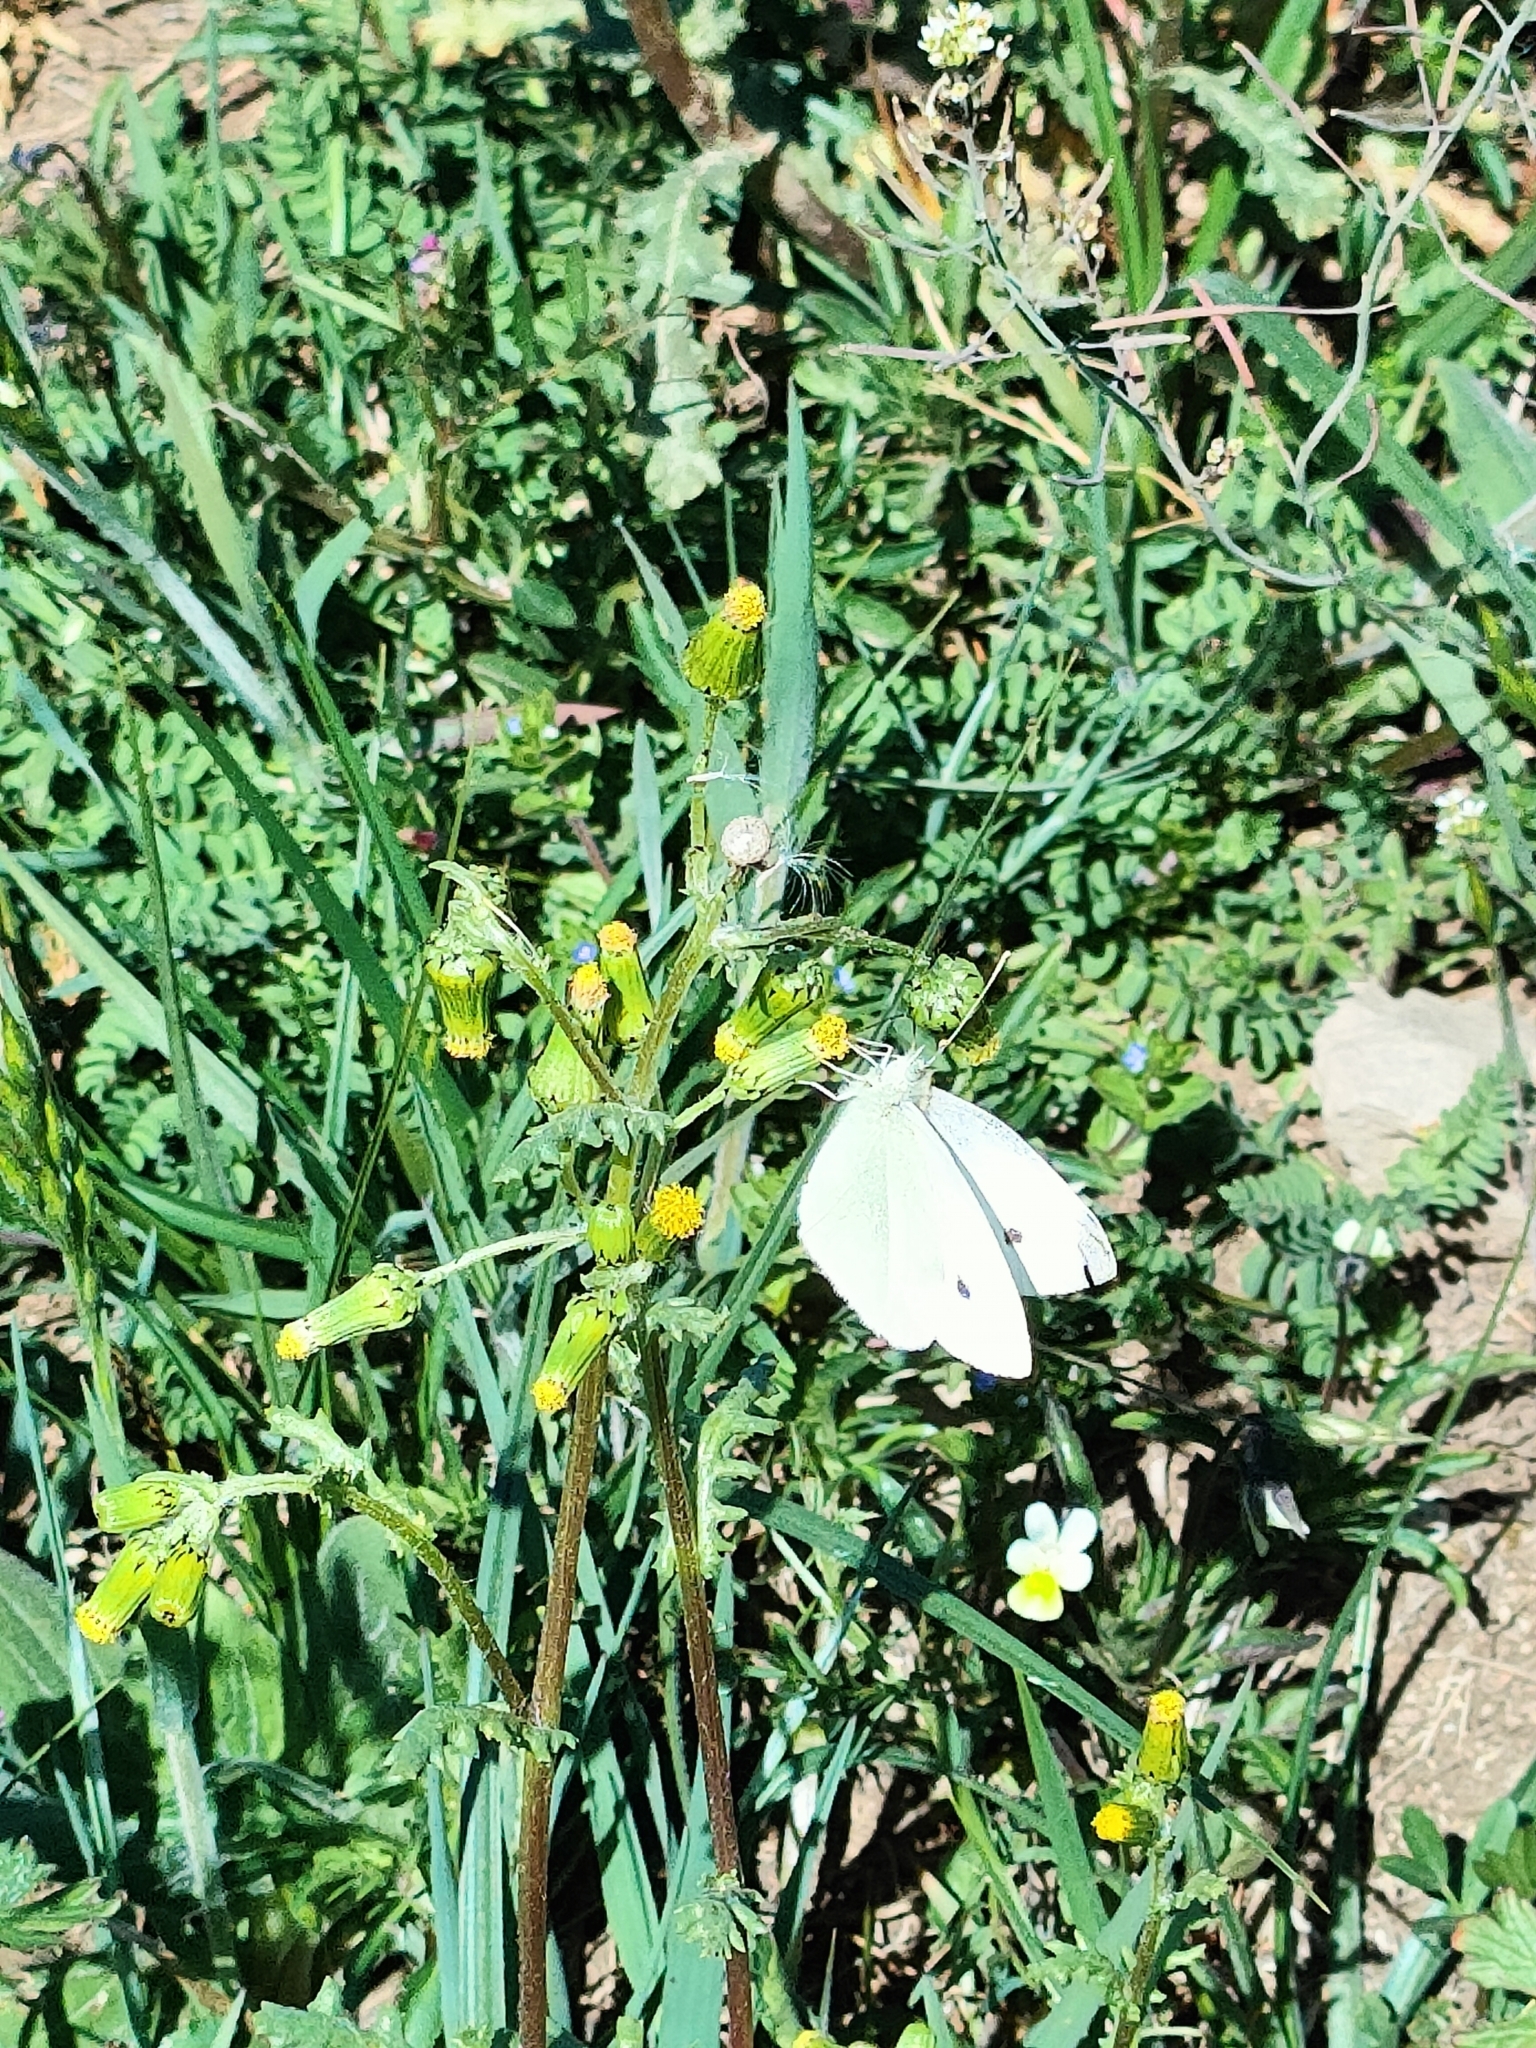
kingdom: Animalia
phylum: Arthropoda
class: Insecta
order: Lepidoptera
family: Pieridae
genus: Pieris
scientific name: Pieris rapae
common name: Small white
